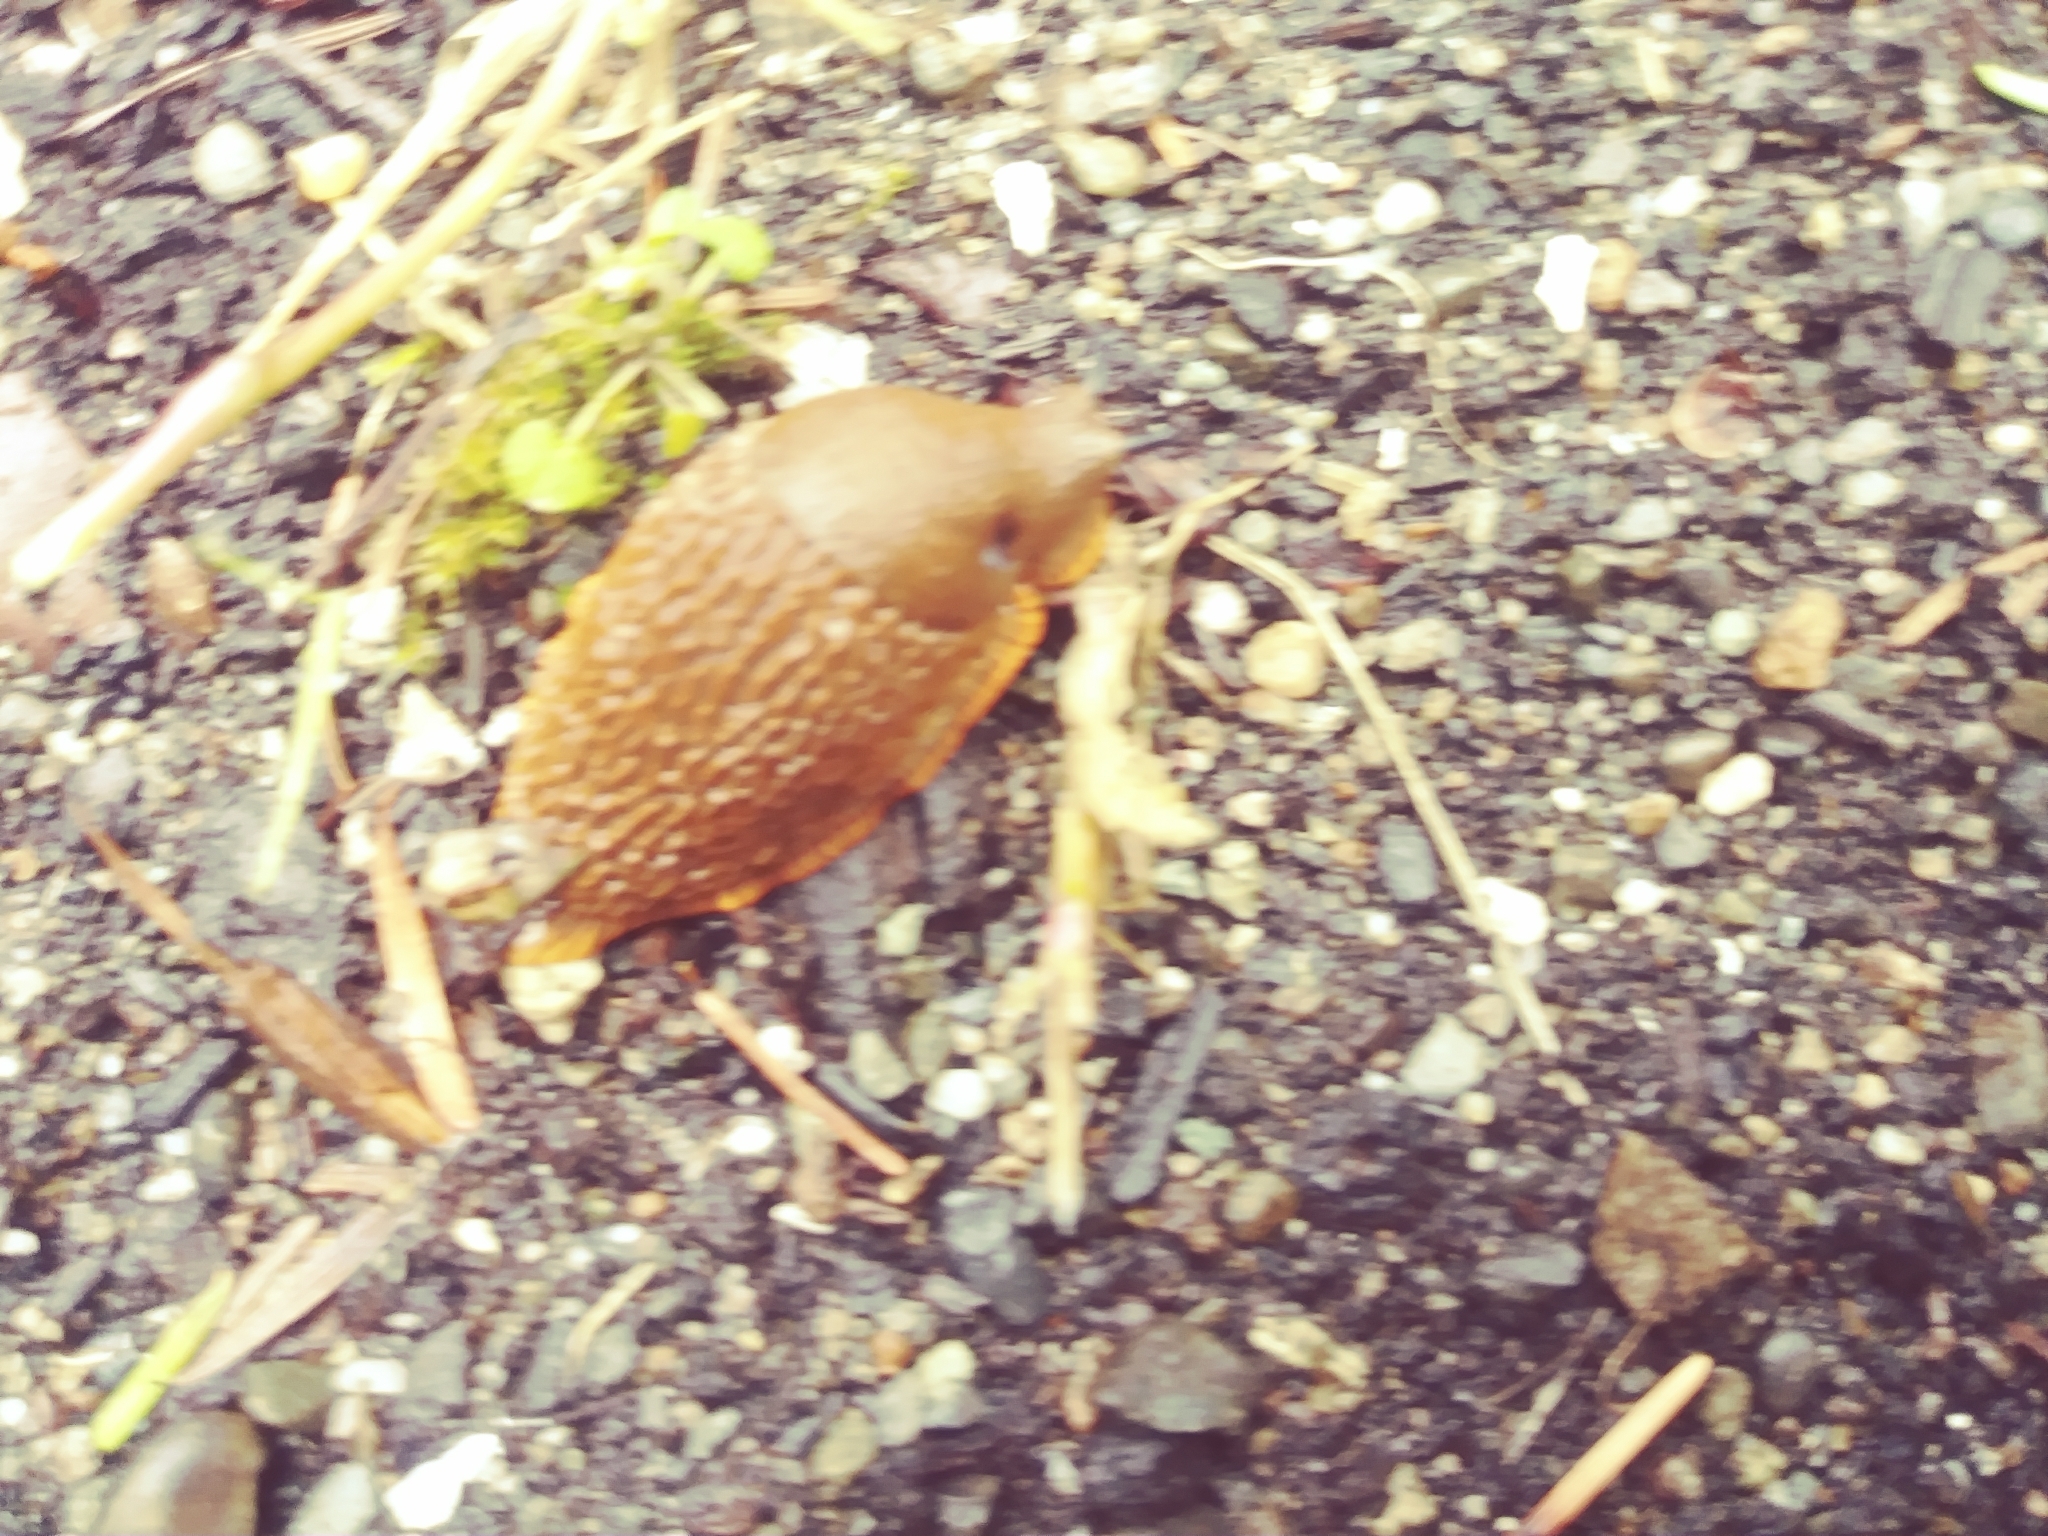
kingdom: Animalia
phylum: Mollusca
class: Gastropoda
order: Stylommatophora
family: Arionidae
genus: Arion
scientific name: Arion rufus
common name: Chocolate arion
